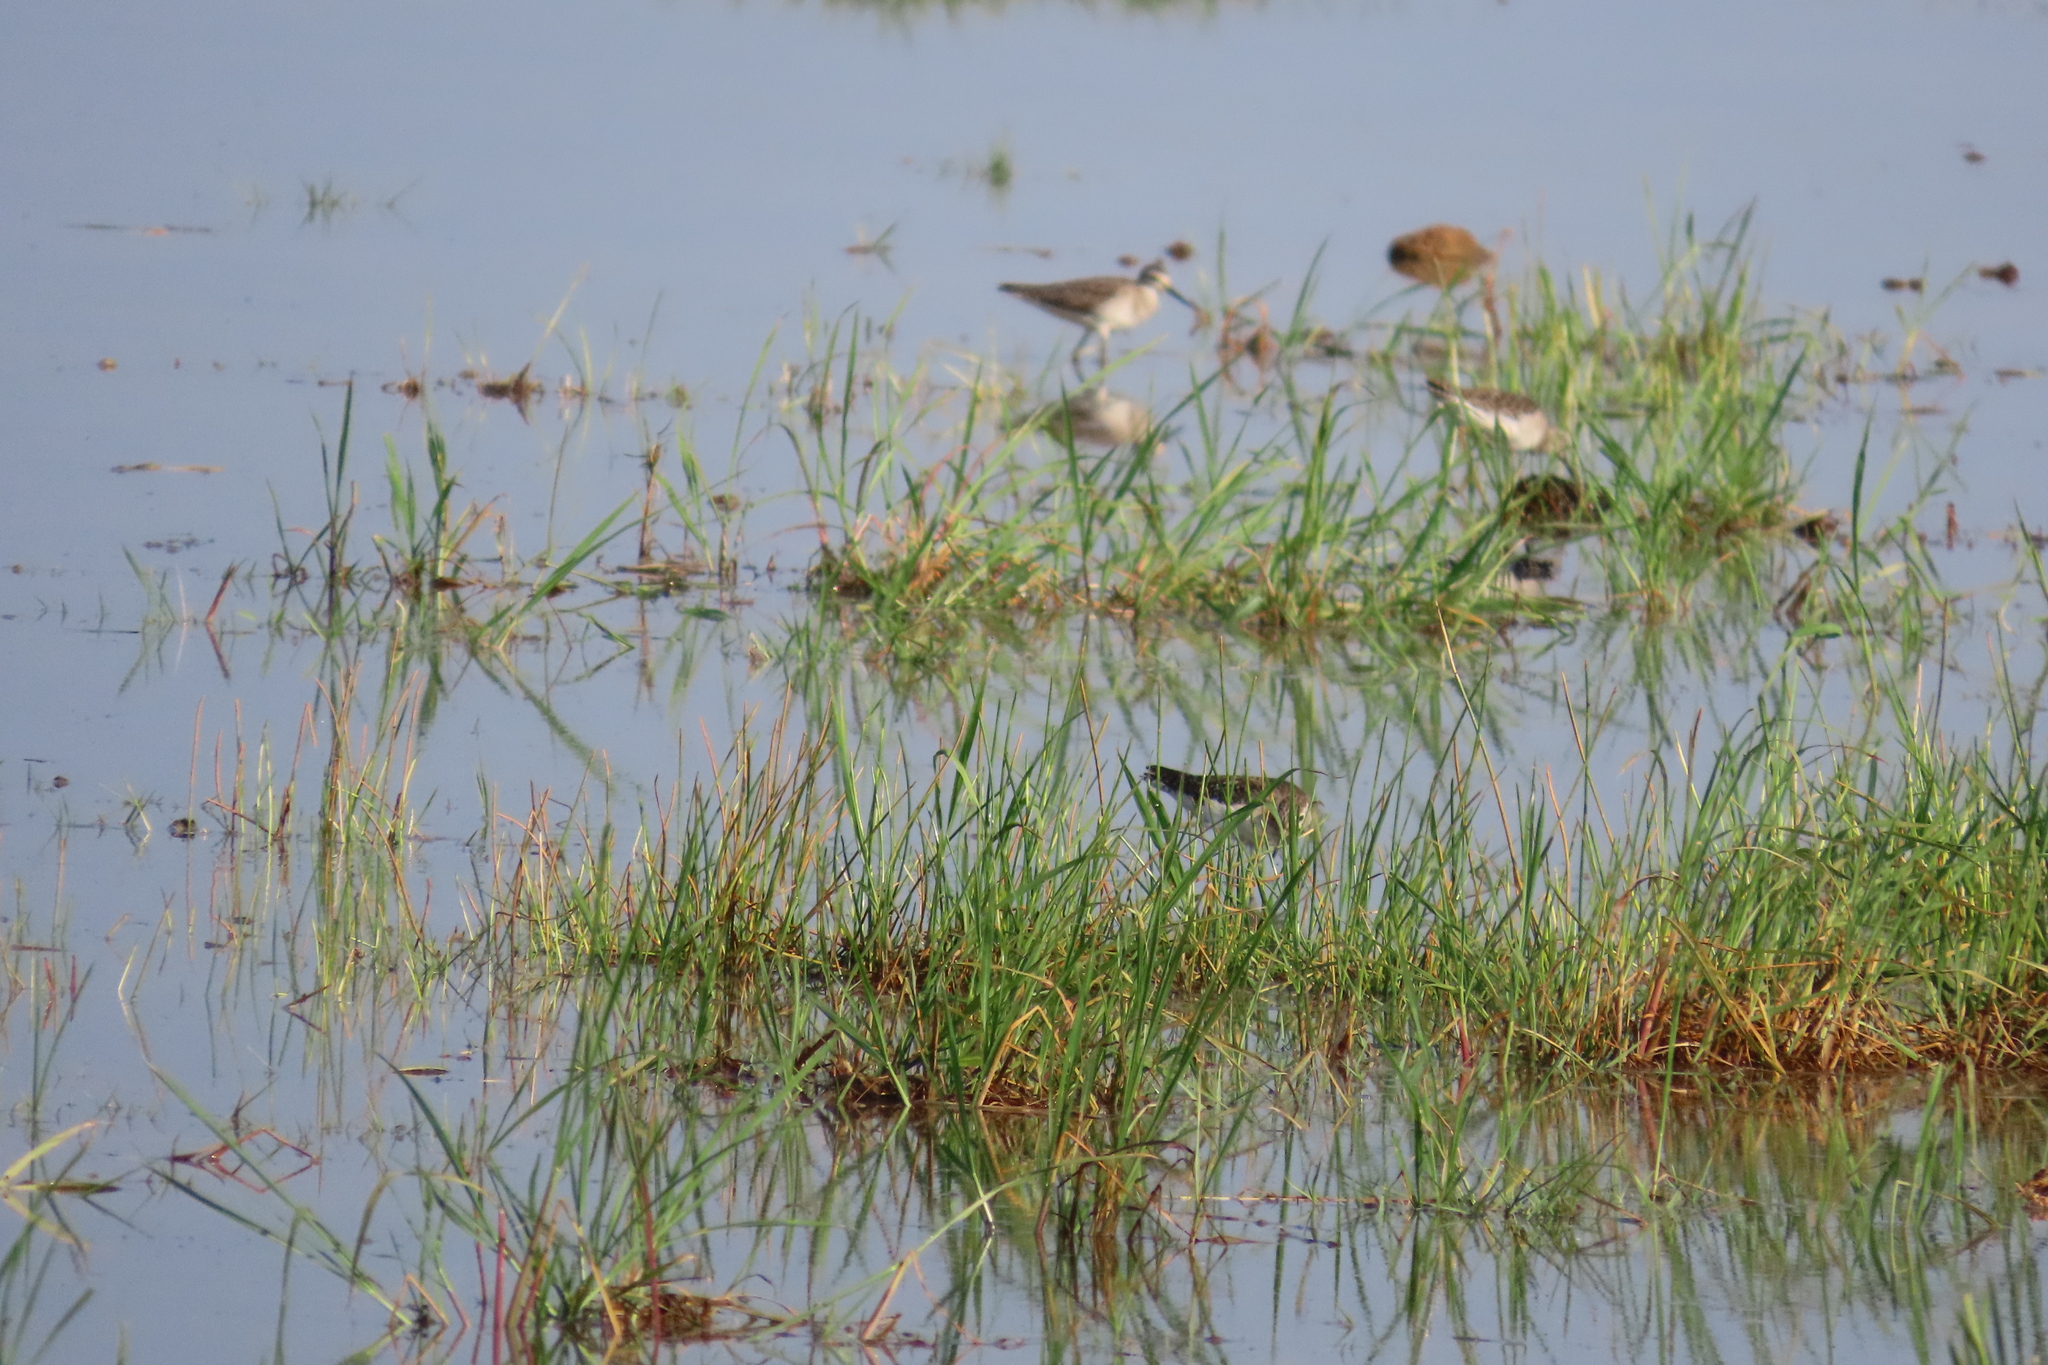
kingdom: Animalia
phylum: Chordata
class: Aves
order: Charadriiformes
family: Scolopacidae
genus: Tringa
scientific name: Tringa glareola
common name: Wood sandpiper
